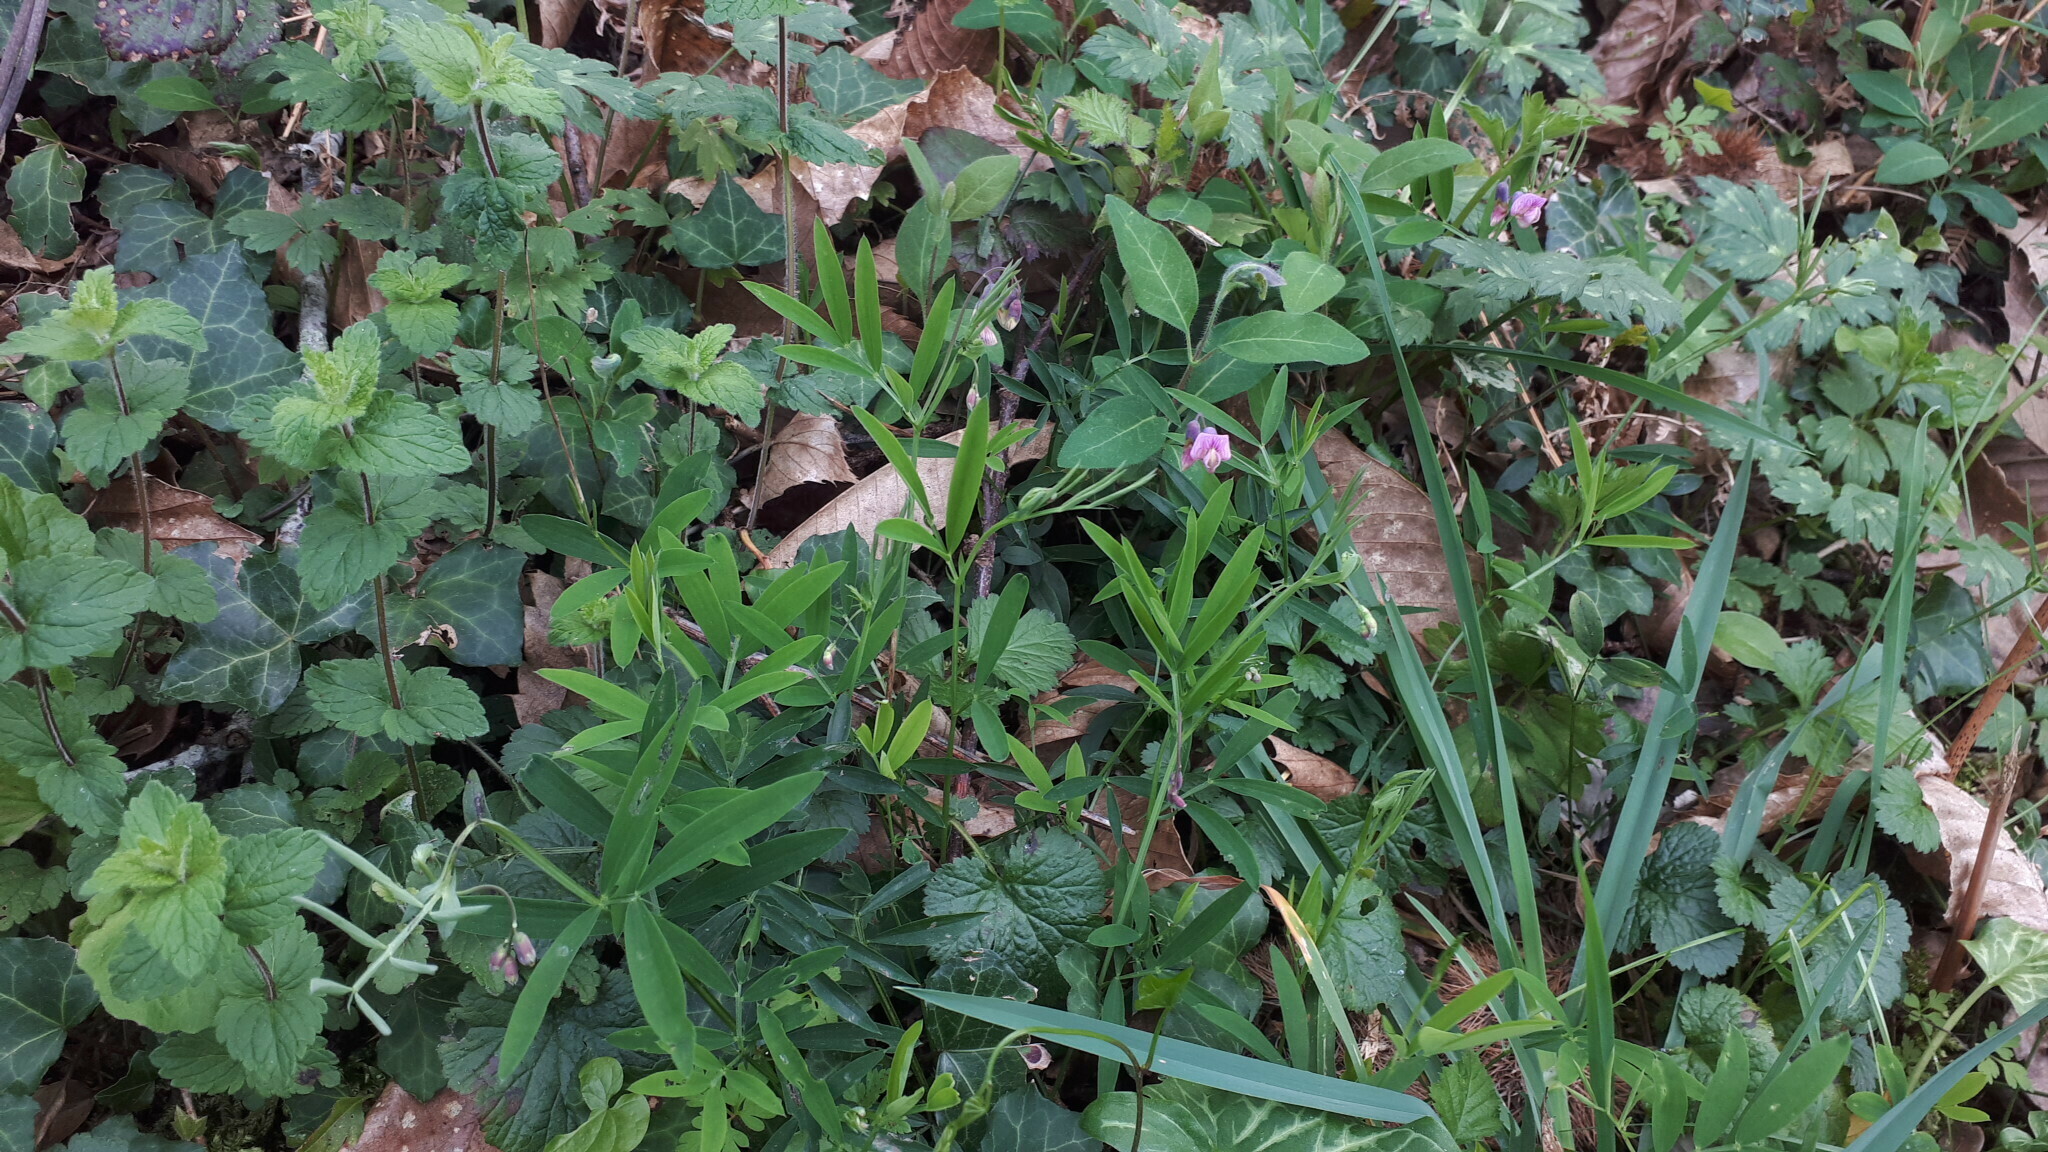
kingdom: Plantae
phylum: Tracheophyta
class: Magnoliopsida
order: Fabales
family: Fabaceae
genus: Lathyrus
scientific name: Lathyrus linifolius
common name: Bitter-vetch
